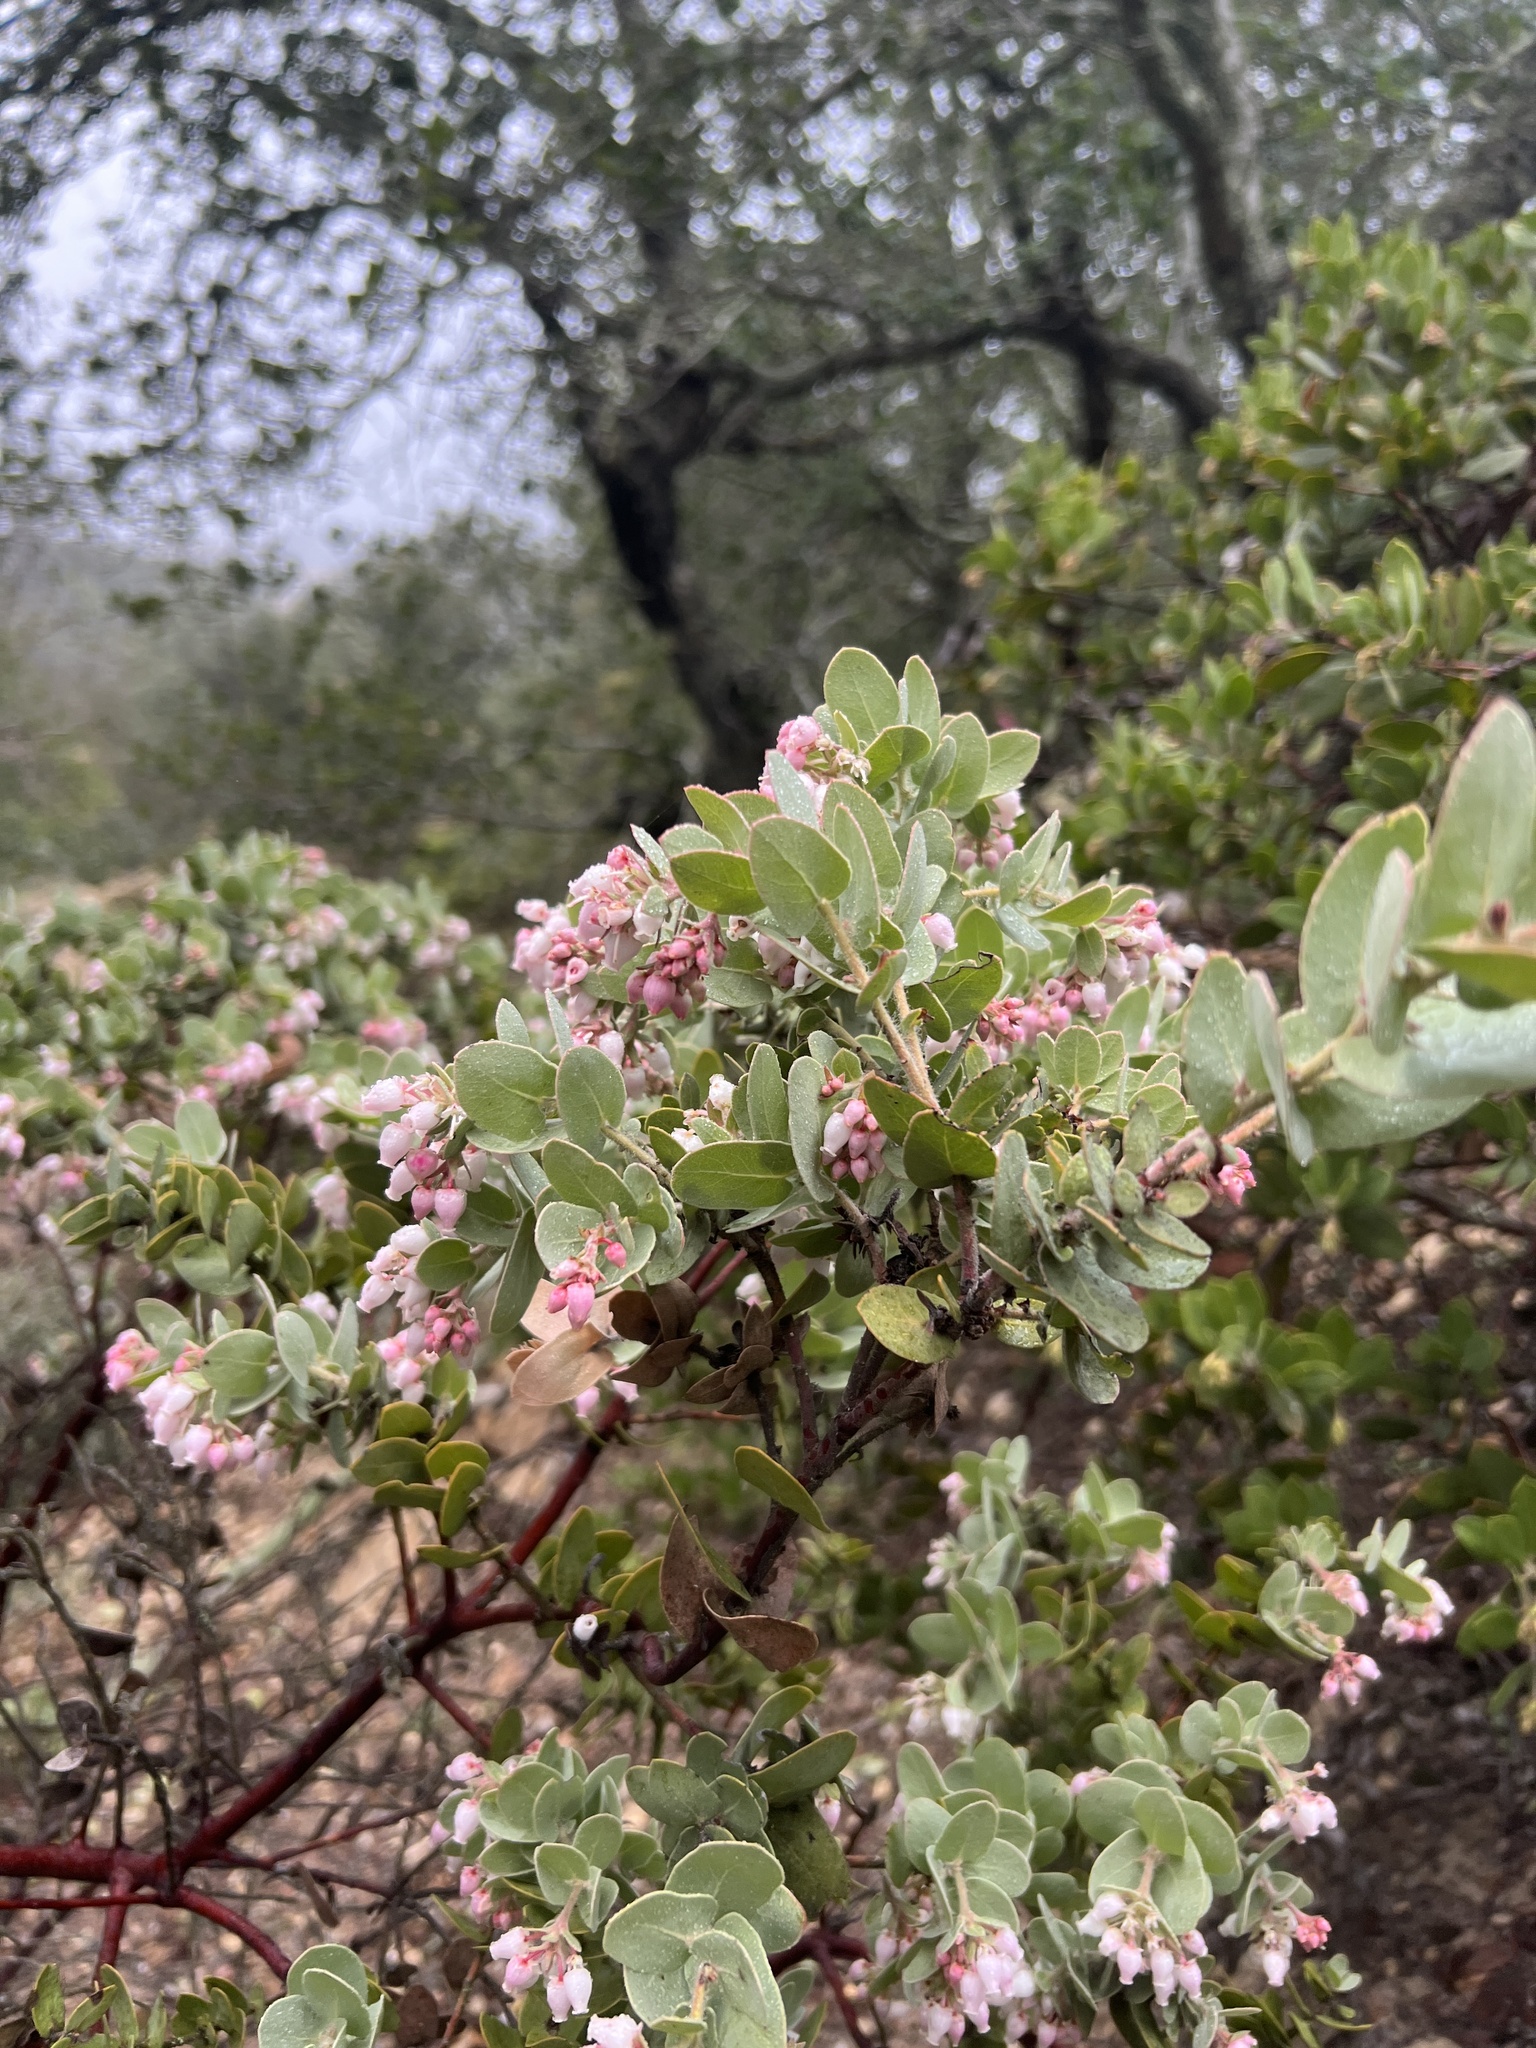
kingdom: Plantae
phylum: Tracheophyta
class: Magnoliopsida
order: Ericales
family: Ericaceae
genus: Arctostaphylos
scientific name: Arctostaphylos auriculata
